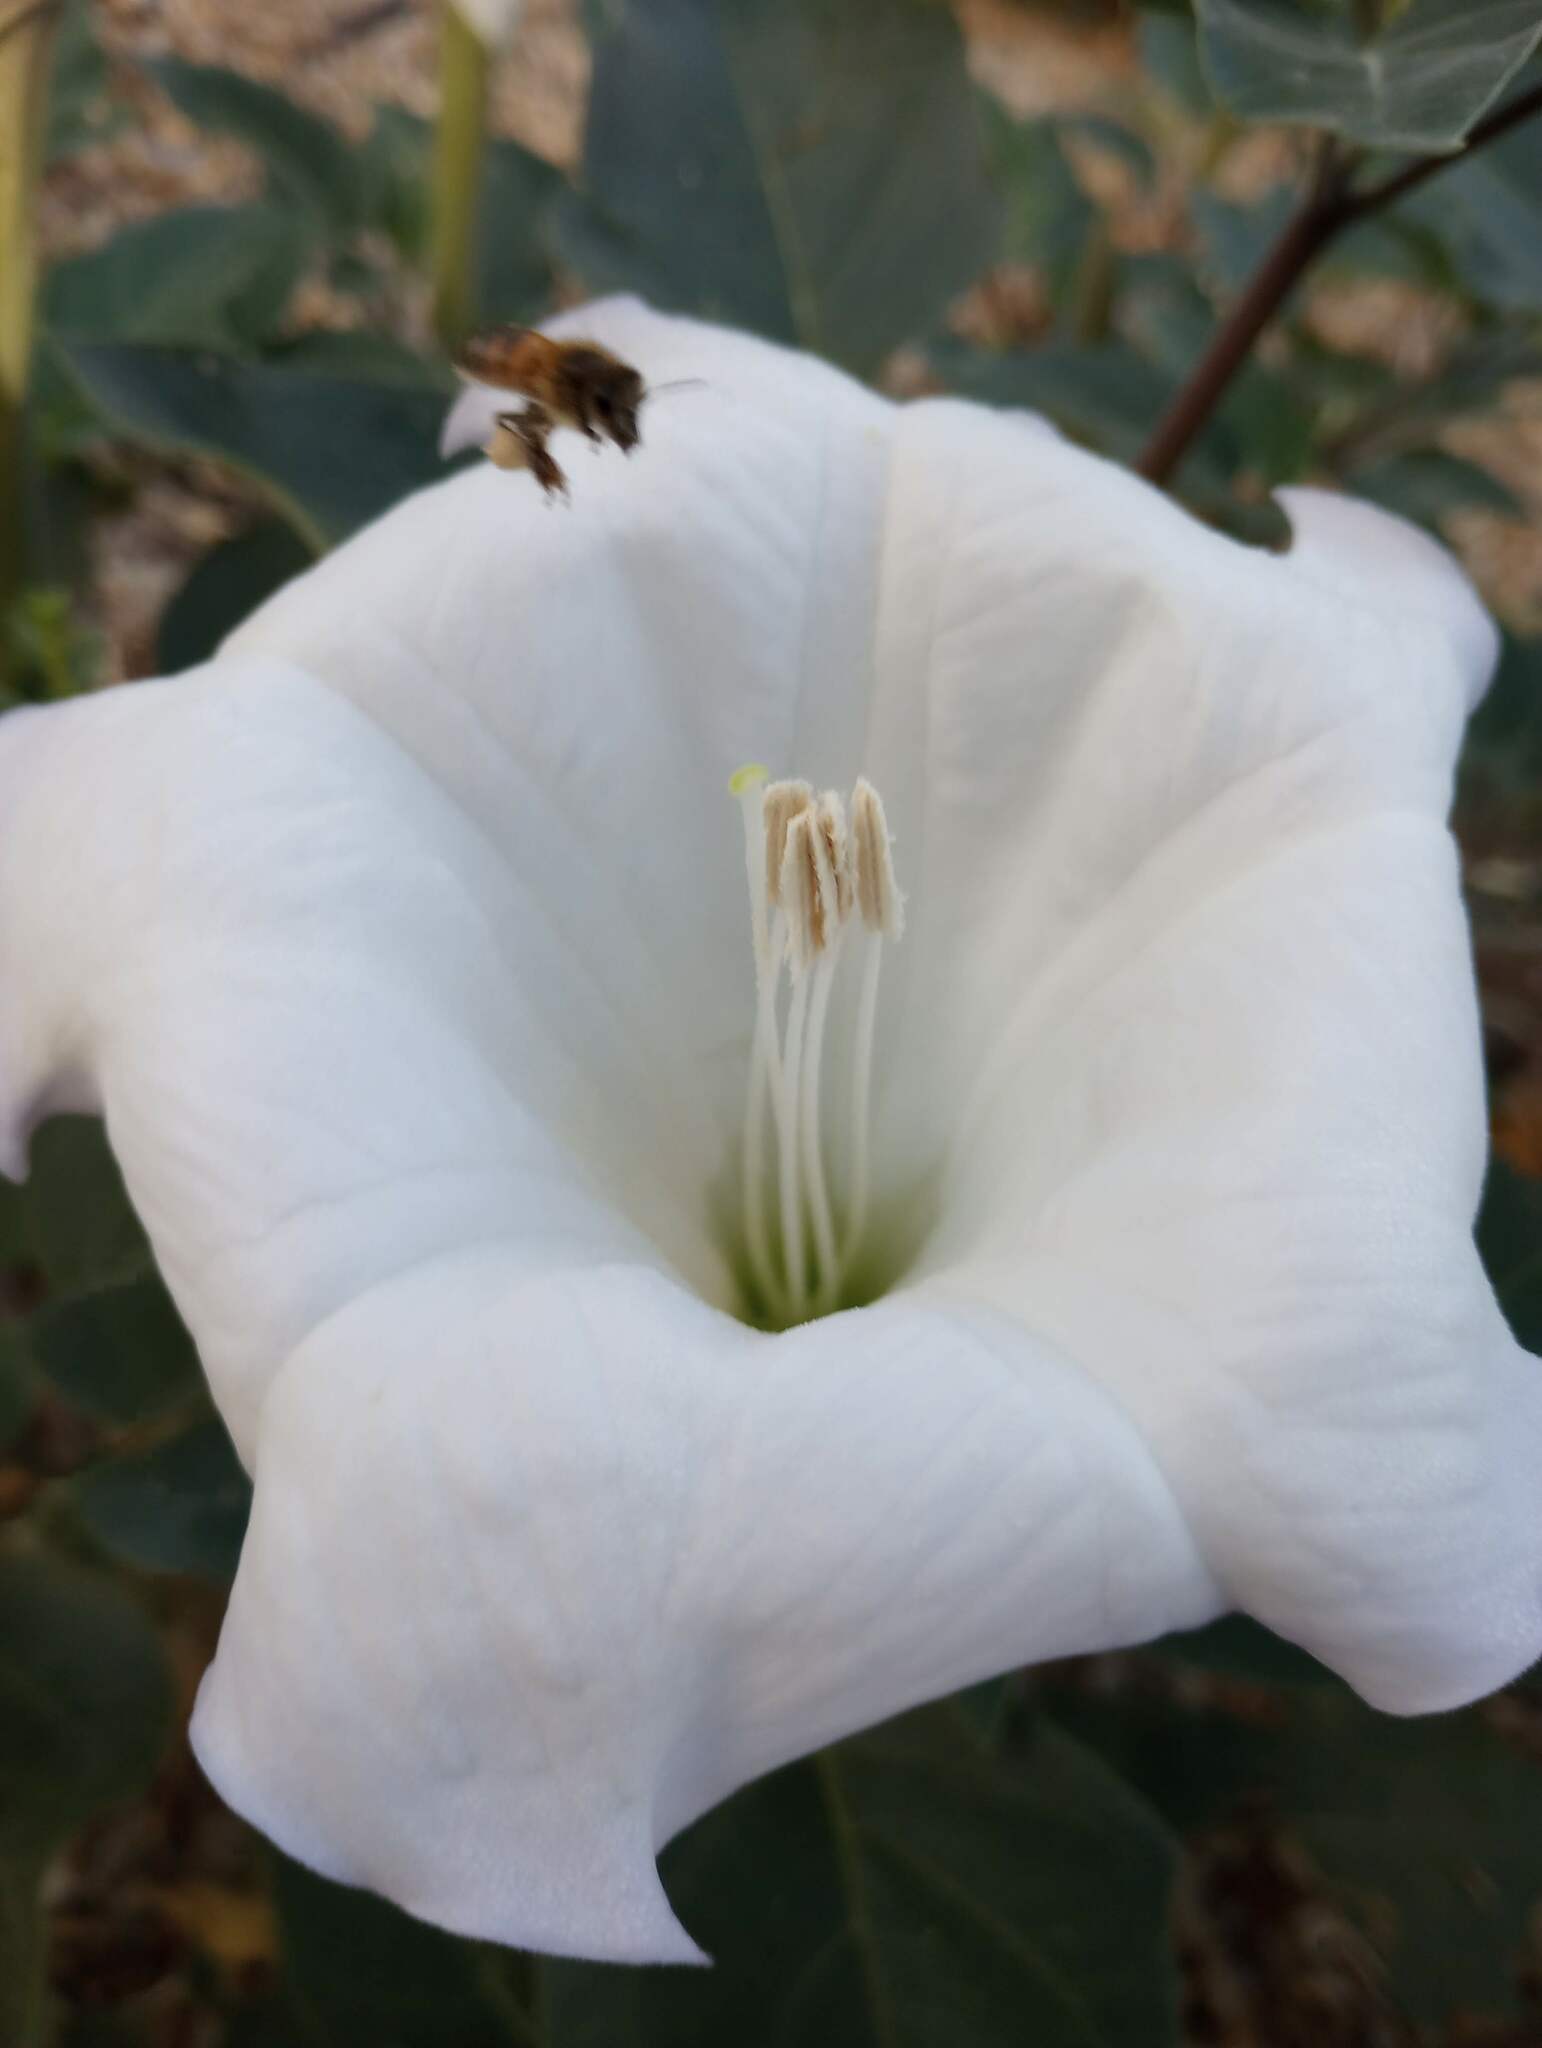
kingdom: Plantae
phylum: Tracheophyta
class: Magnoliopsida
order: Solanales
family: Solanaceae
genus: Datura
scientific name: Datura wrightii
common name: Sacred thorn-apple
